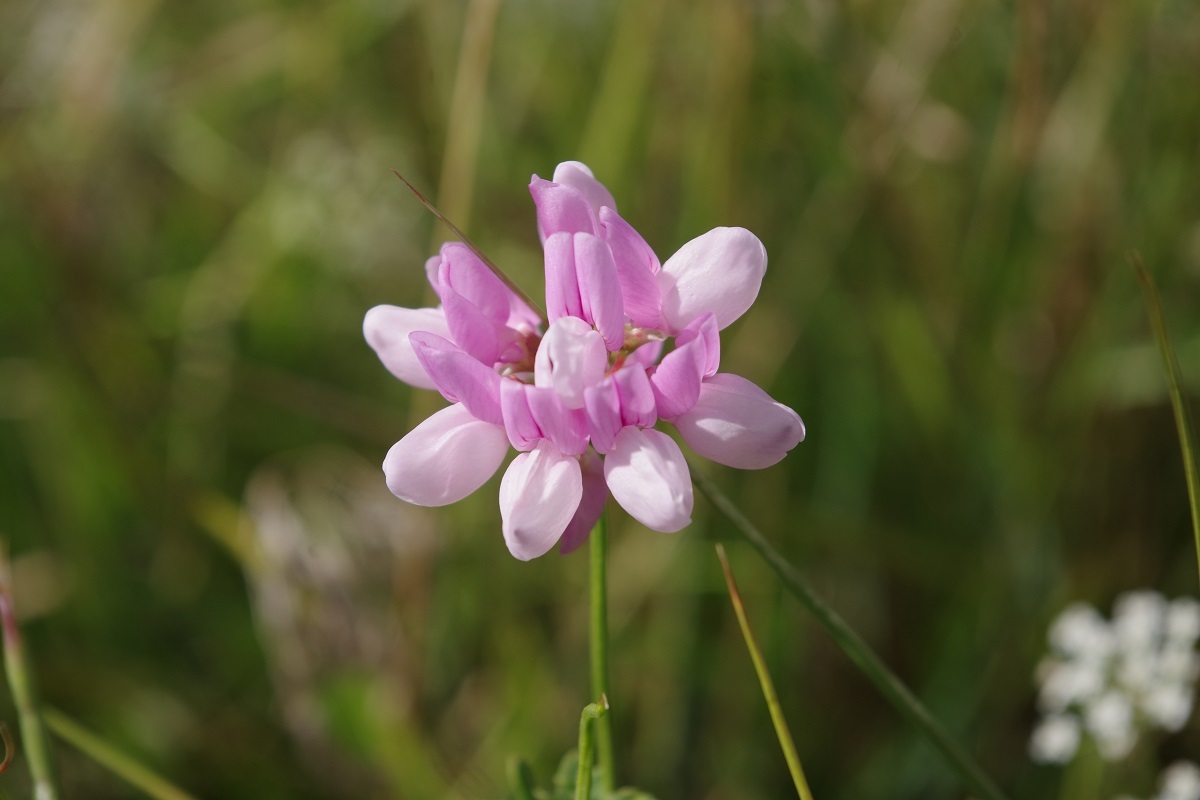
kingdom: Plantae
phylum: Tracheophyta
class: Magnoliopsida
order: Fabales
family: Fabaceae
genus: Coronilla
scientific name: Coronilla varia
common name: Crownvetch
